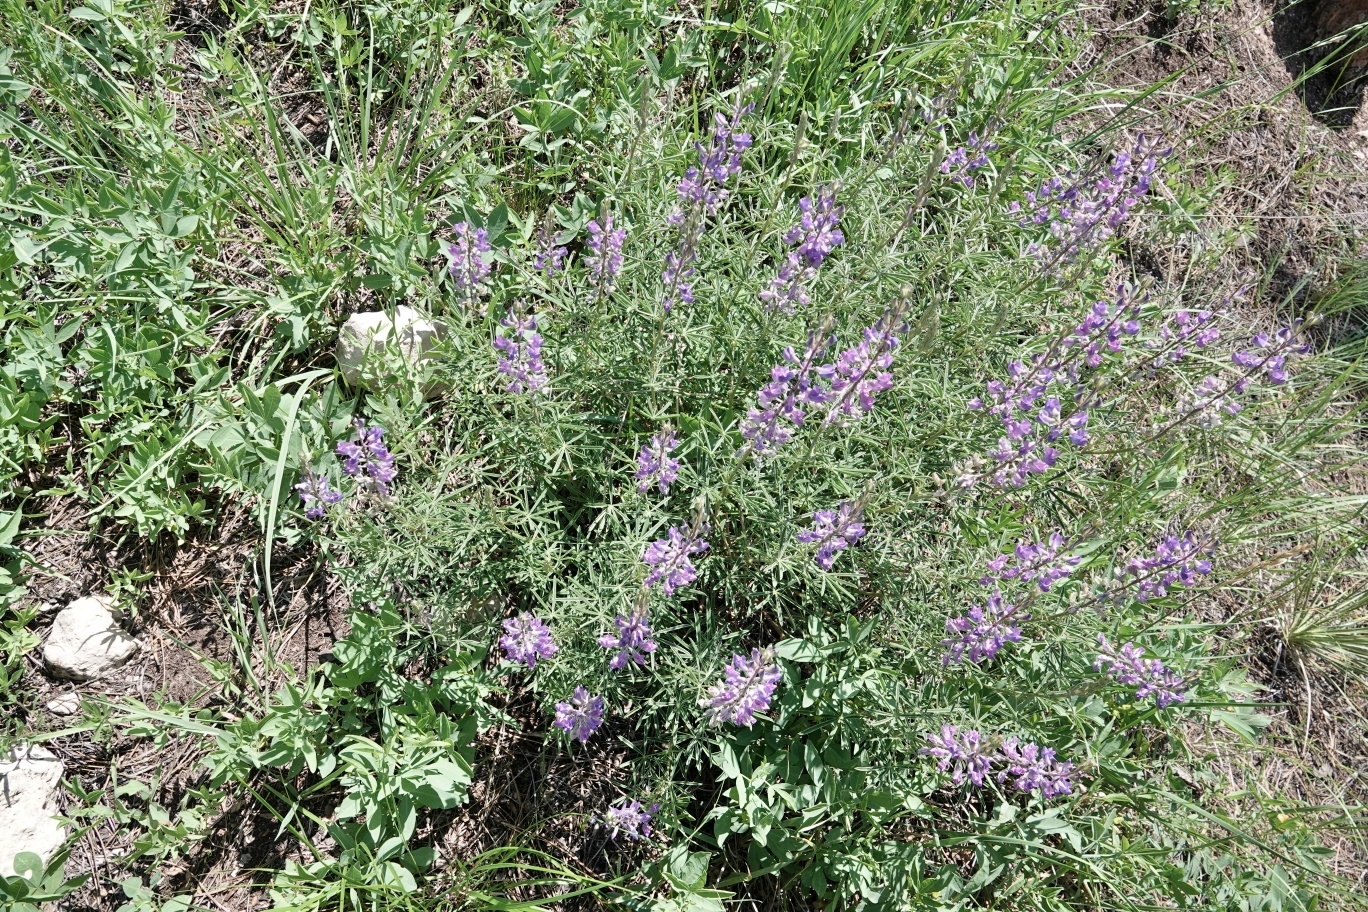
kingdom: Plantae
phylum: Tracheophyta
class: Magnoliopsida
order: Fabales
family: Fabaceae
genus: Lupinus
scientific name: Lupinus argenteus
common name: Silvery lupine
